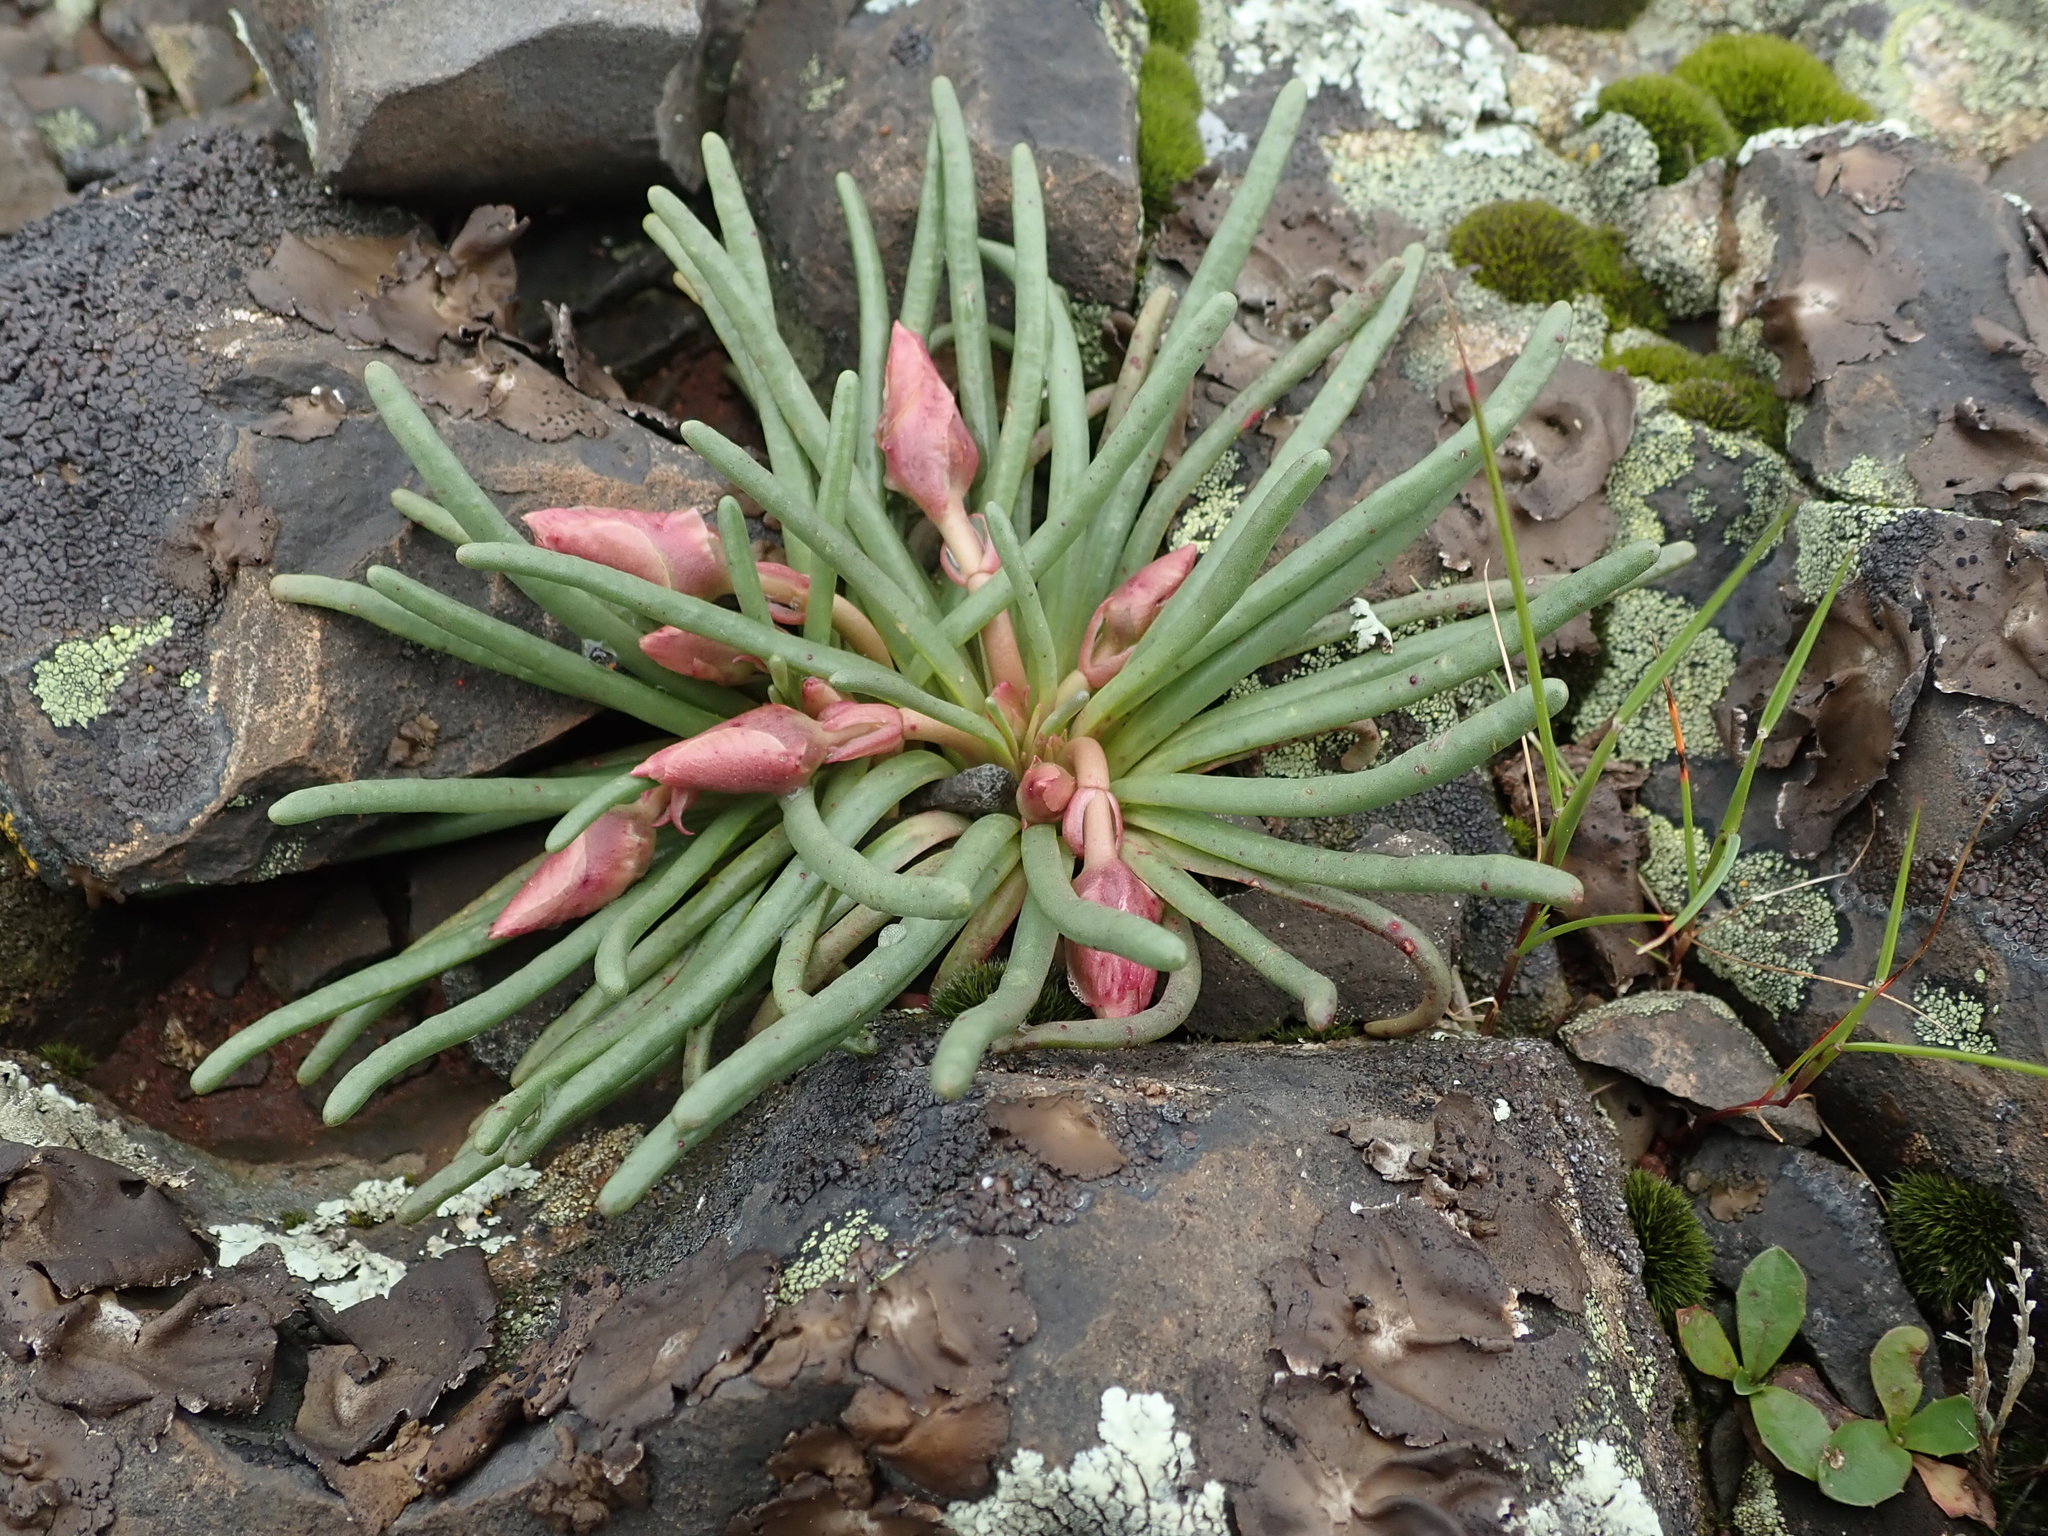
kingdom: Plantae
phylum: Tracheophyta
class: Magnoliopsida
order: Caryophyllales
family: Montiaceae
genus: Lewisia
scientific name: Lewisia rediviva
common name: Bitter-root
